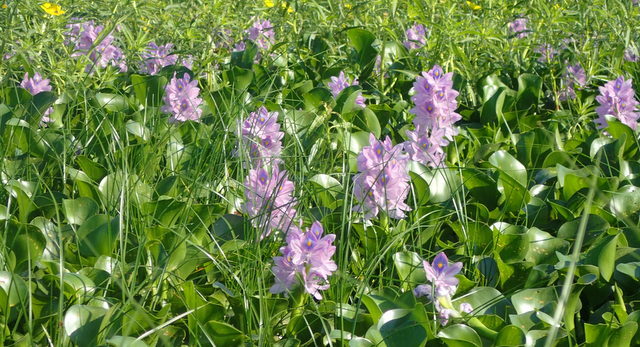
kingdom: Plantae
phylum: Tracheophyta
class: Liliopsida
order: Commelinales
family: Pontederiaceae
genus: Pontederia
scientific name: Pontederia crassipes
